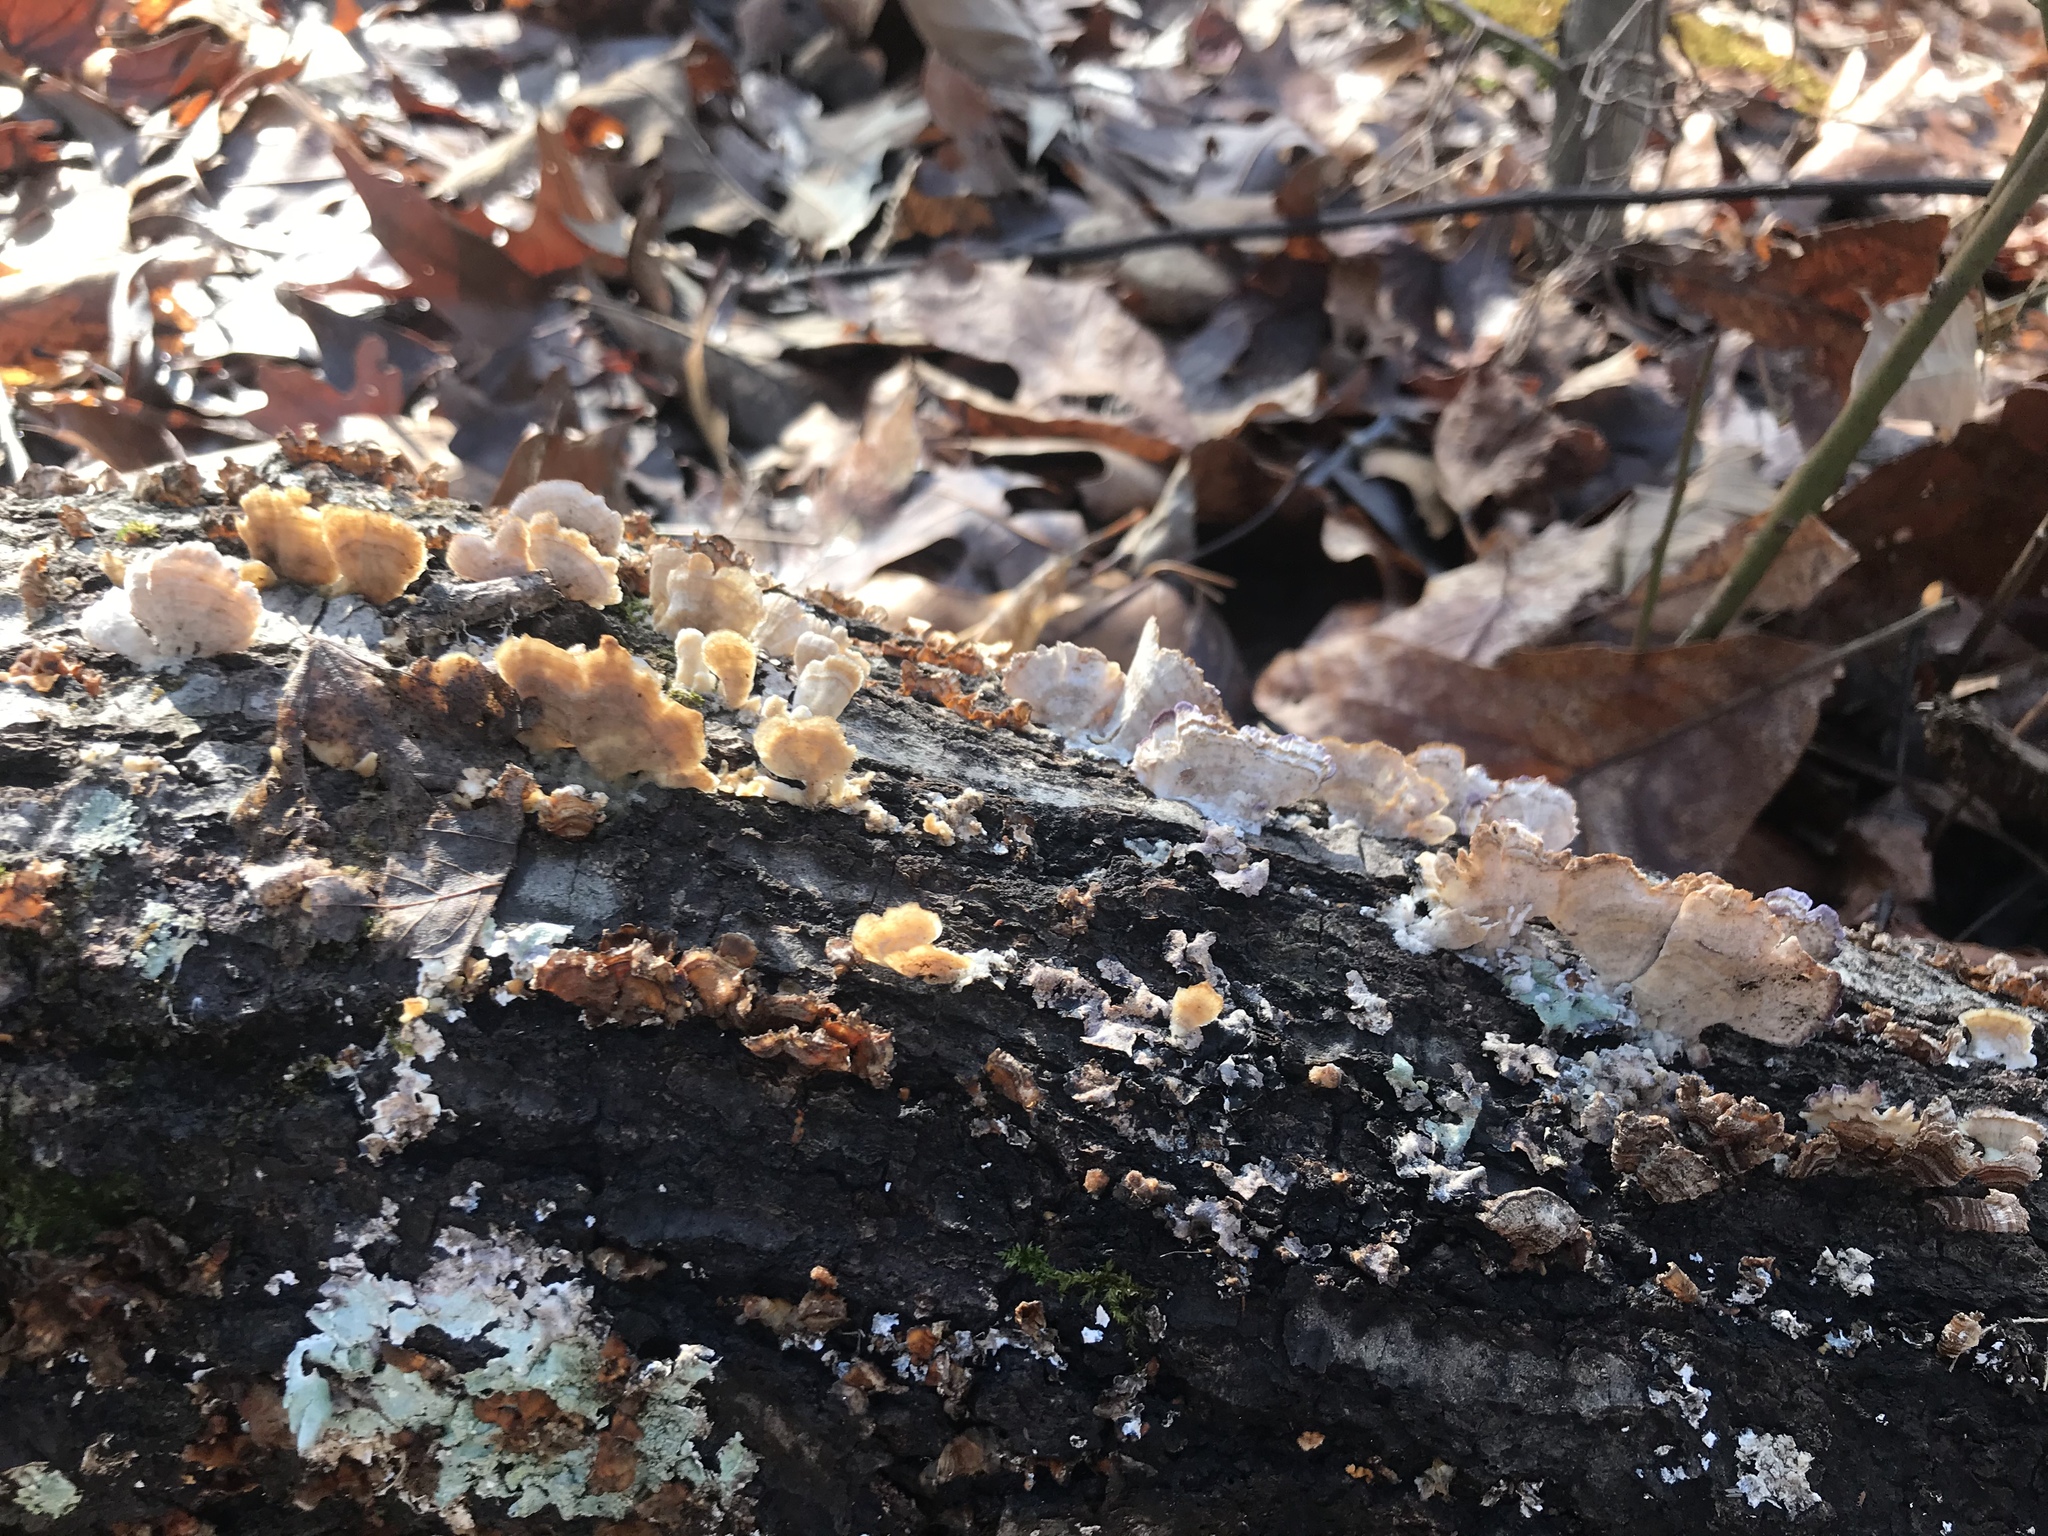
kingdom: Fungi
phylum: Basidiomycota
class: Agaricomycetes
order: Russulales
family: Stereaceae
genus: Stereum
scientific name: Stereum complicatum
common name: Crowded parchment
